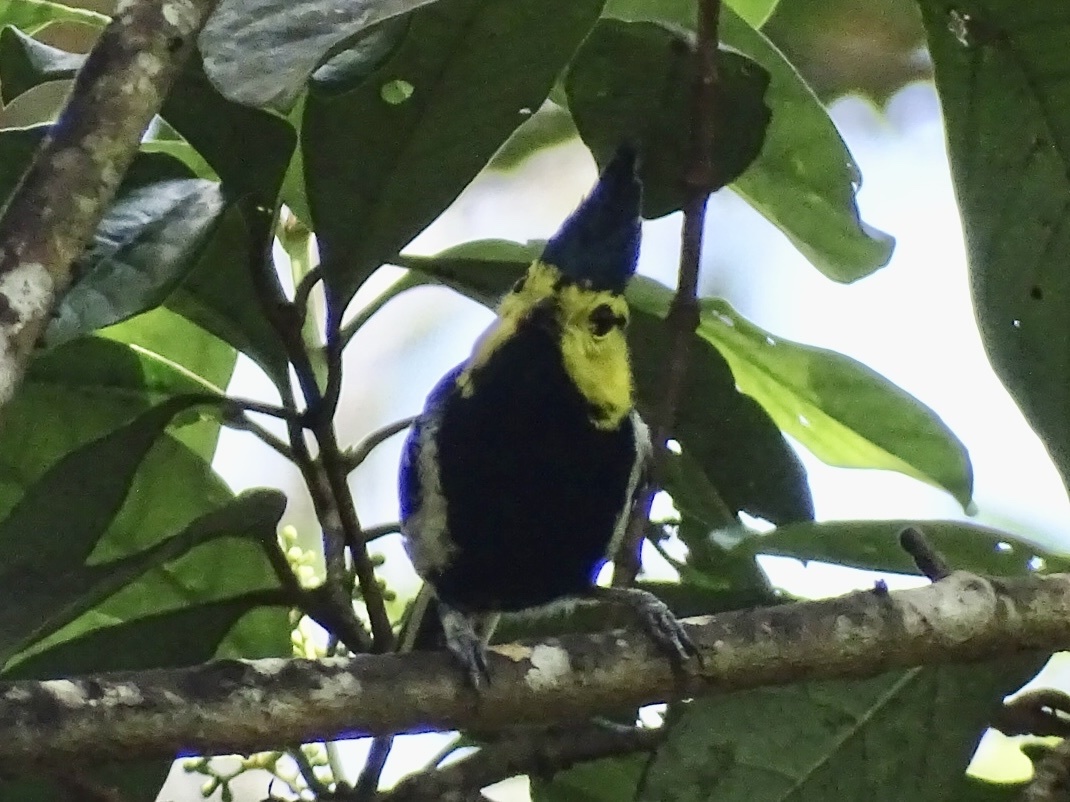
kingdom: Animalia
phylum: Chordata
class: Aves
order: Passeriformes
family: Paridae
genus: Parus
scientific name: Parus spilonotus
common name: Yellow-cheeked tit
